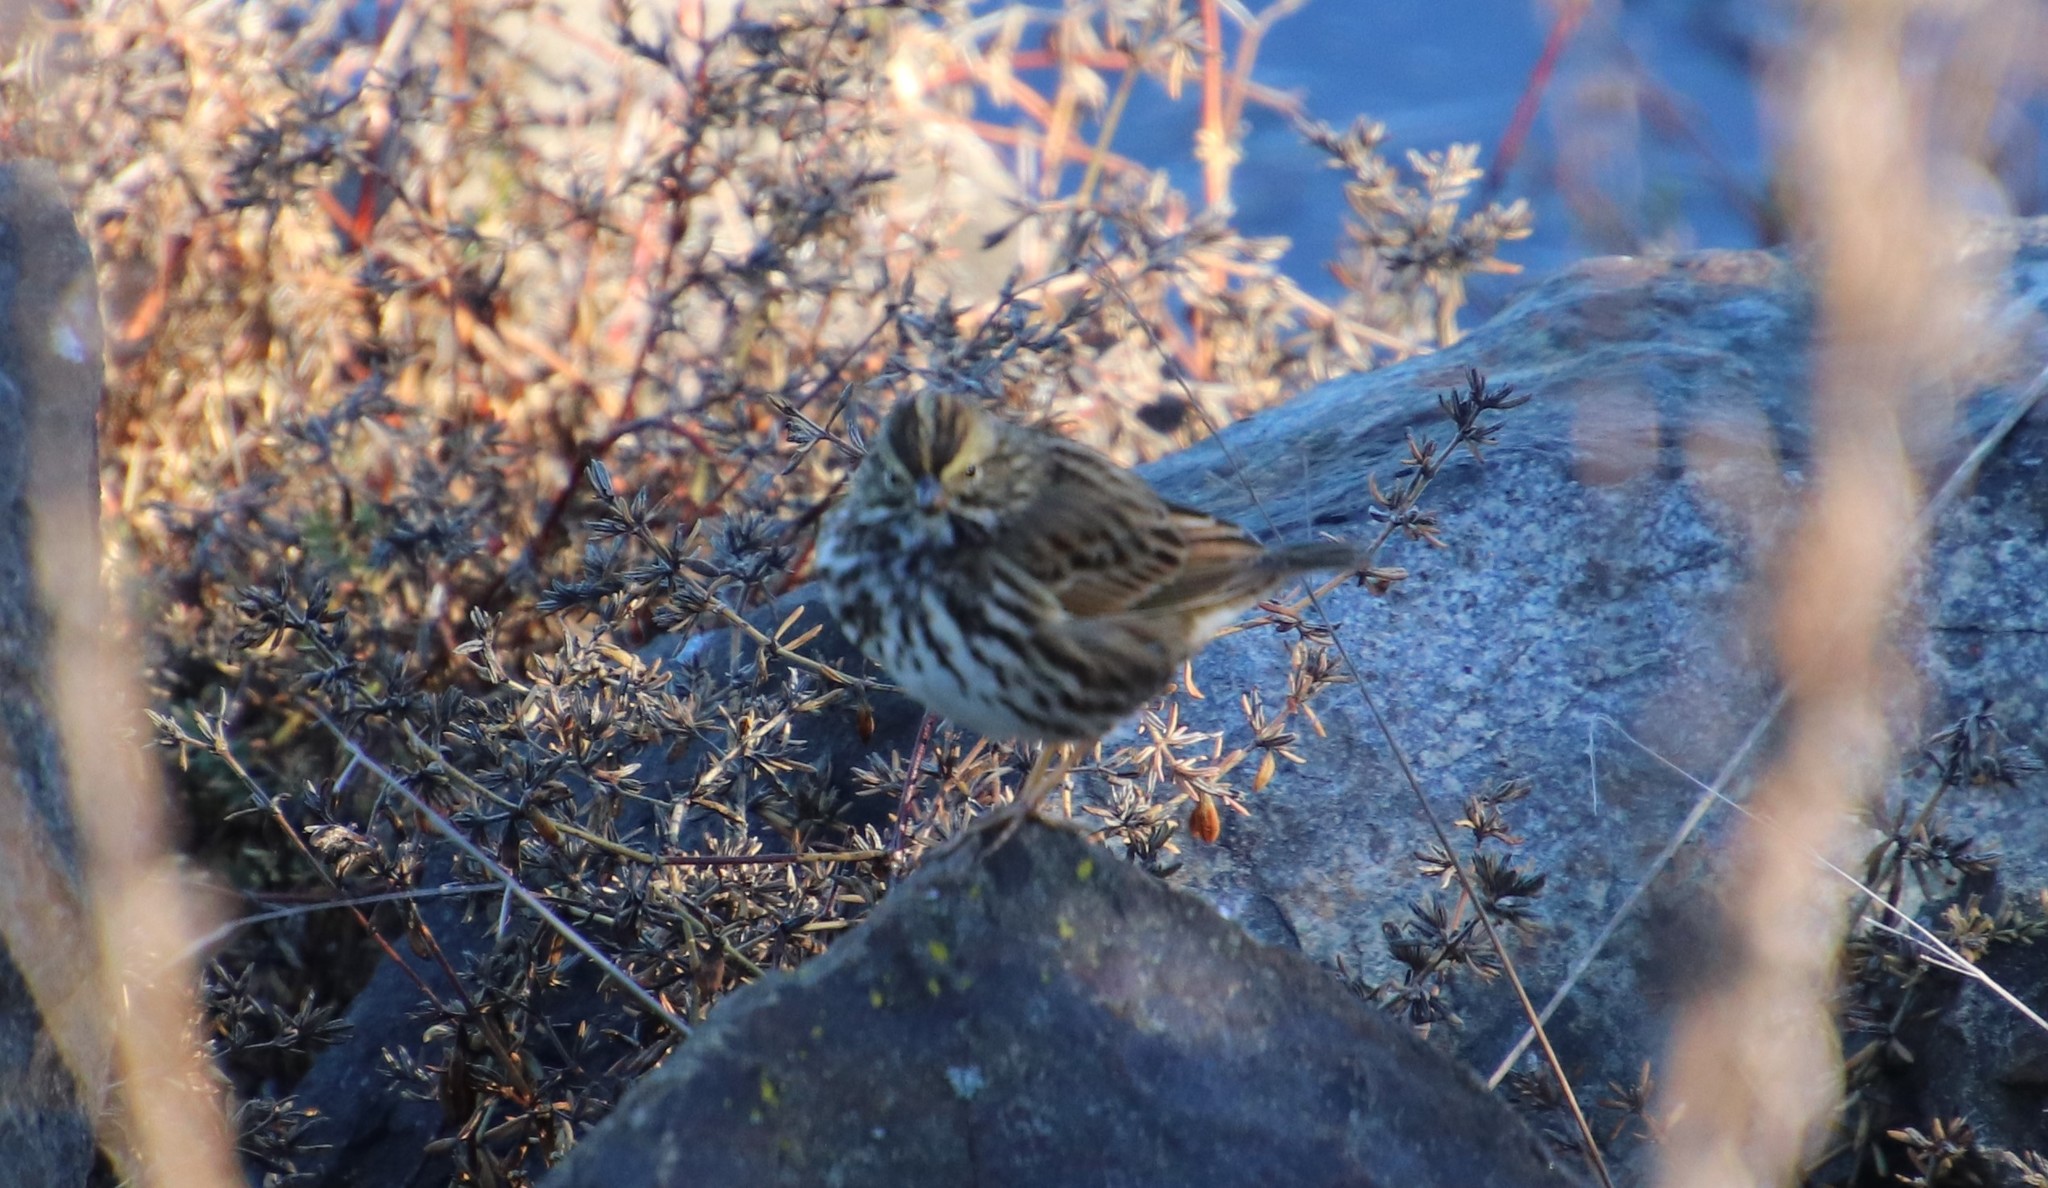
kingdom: Animalia
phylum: Chordata
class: Aves
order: Passeriformes
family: Passerellidae
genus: Passerculus
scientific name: Passerculus sandwichensis
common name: Savannah sparrow
